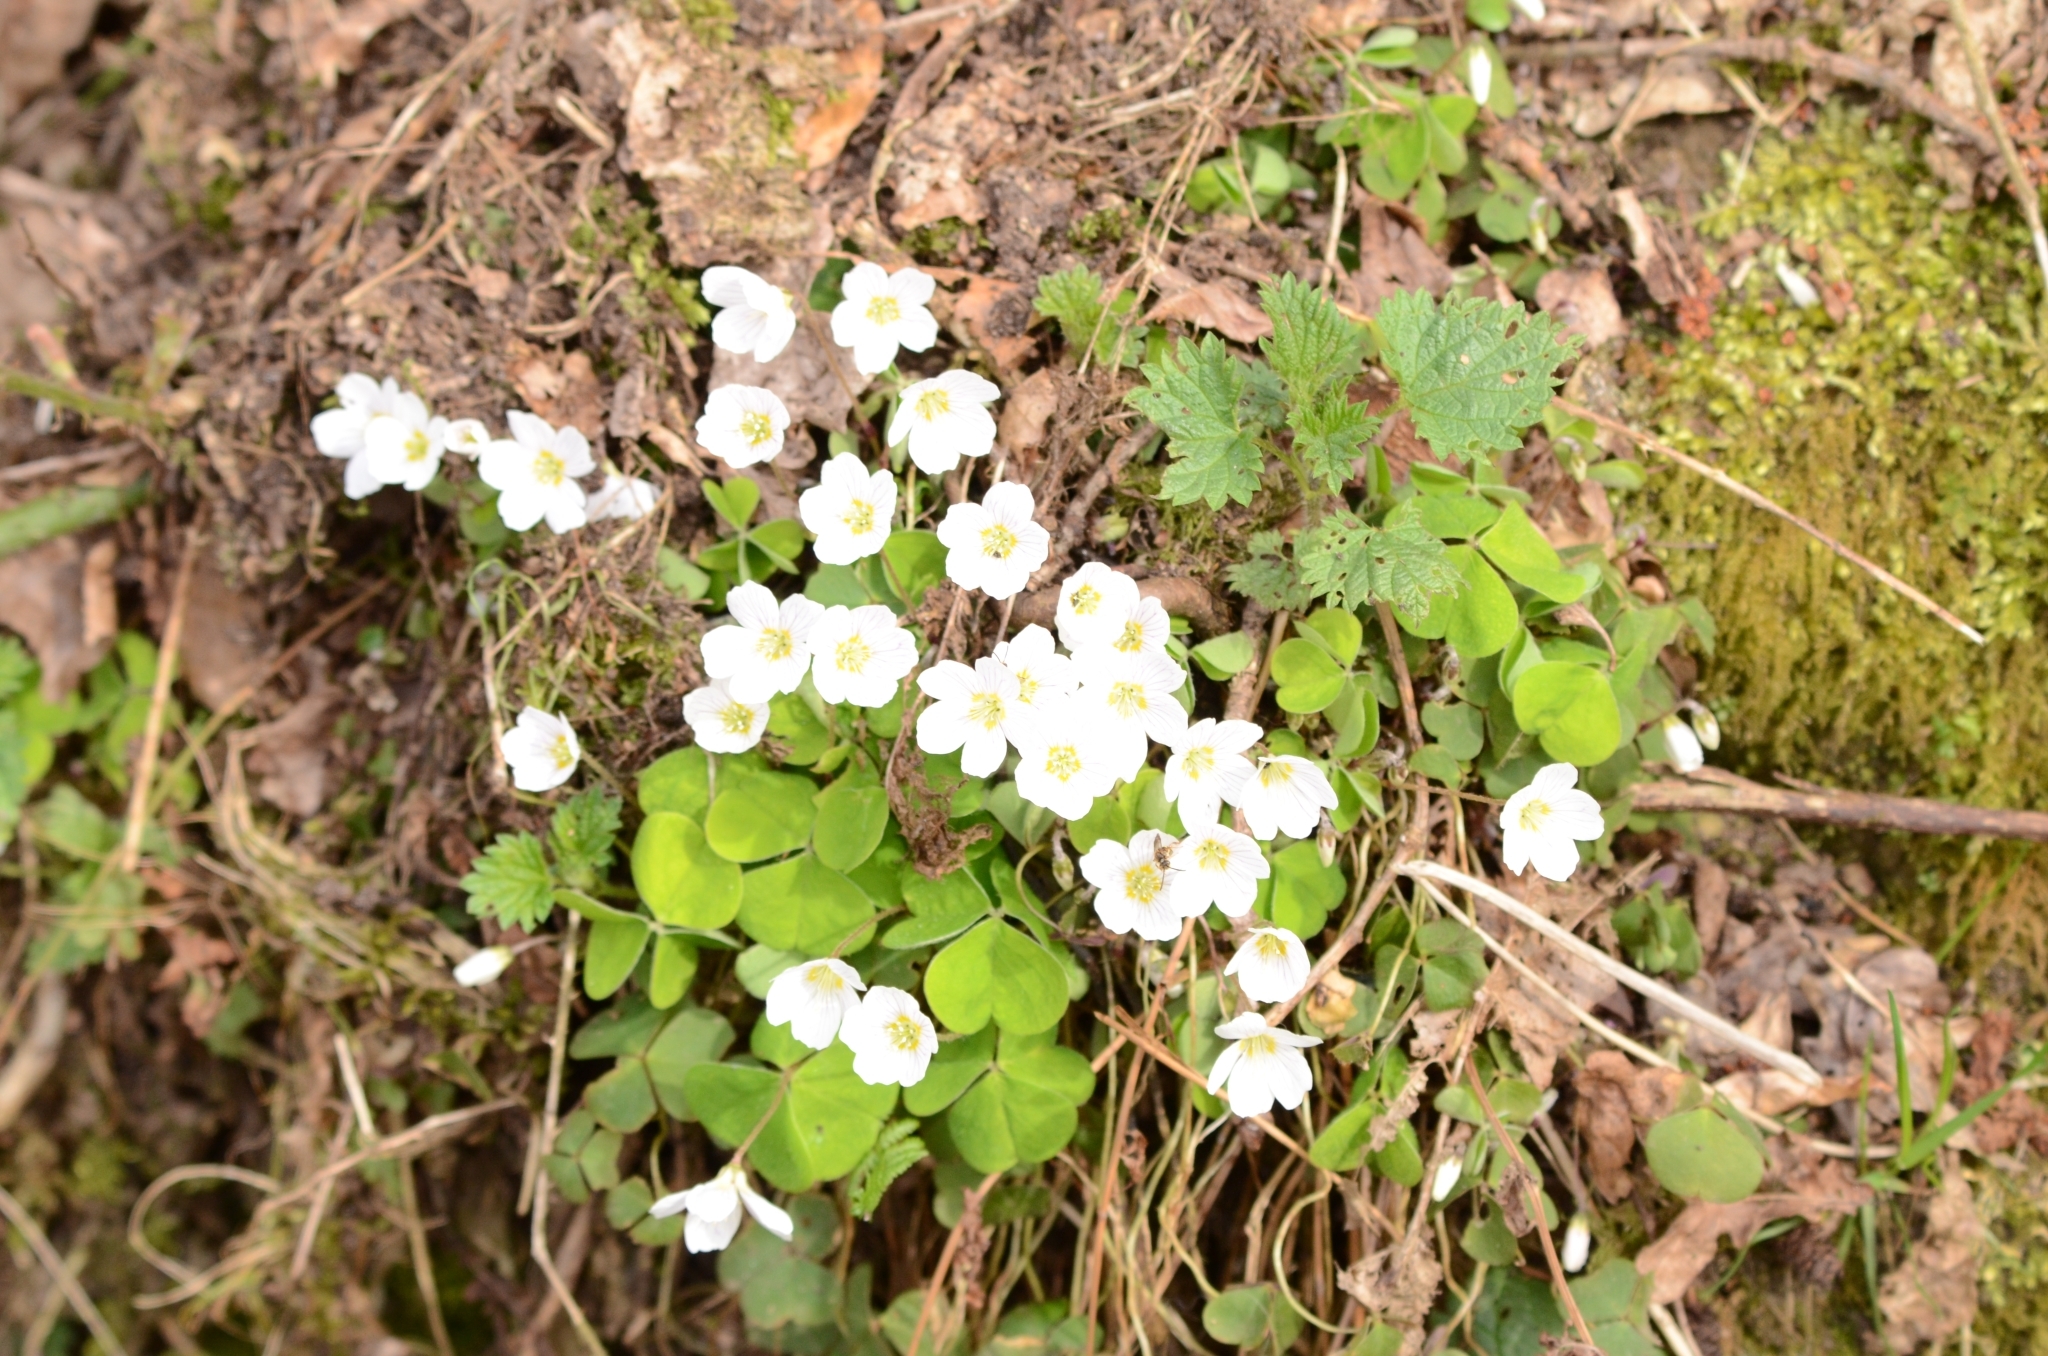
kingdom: Plantae
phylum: Tracheophyta
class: Magnoliopsida
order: Oxalidales
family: Oxalidaceae
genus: Oxalis
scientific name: Oxalis acetosella
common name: Wood-sorrel
